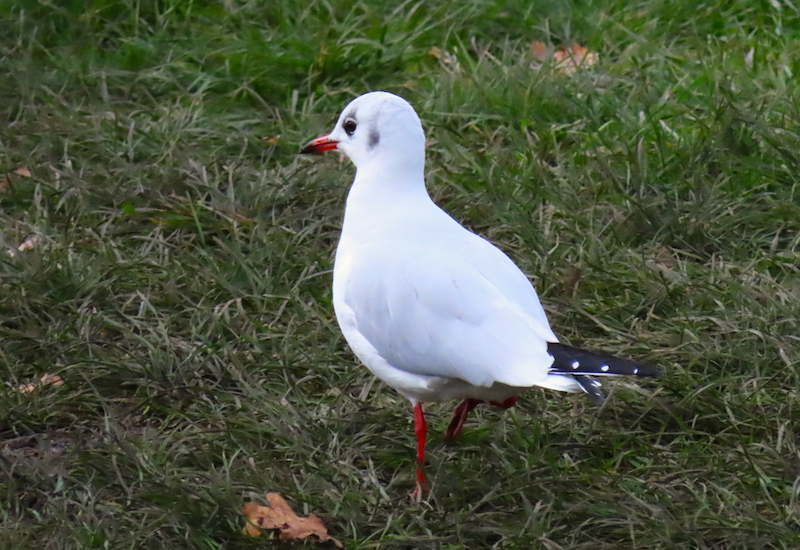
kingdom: Animalia
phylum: Chordata
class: Aves
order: Charadriiformes
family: Laridae
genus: Chroicocephalus
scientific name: Chroicocephalus ridibundus
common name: Black-headed gull
